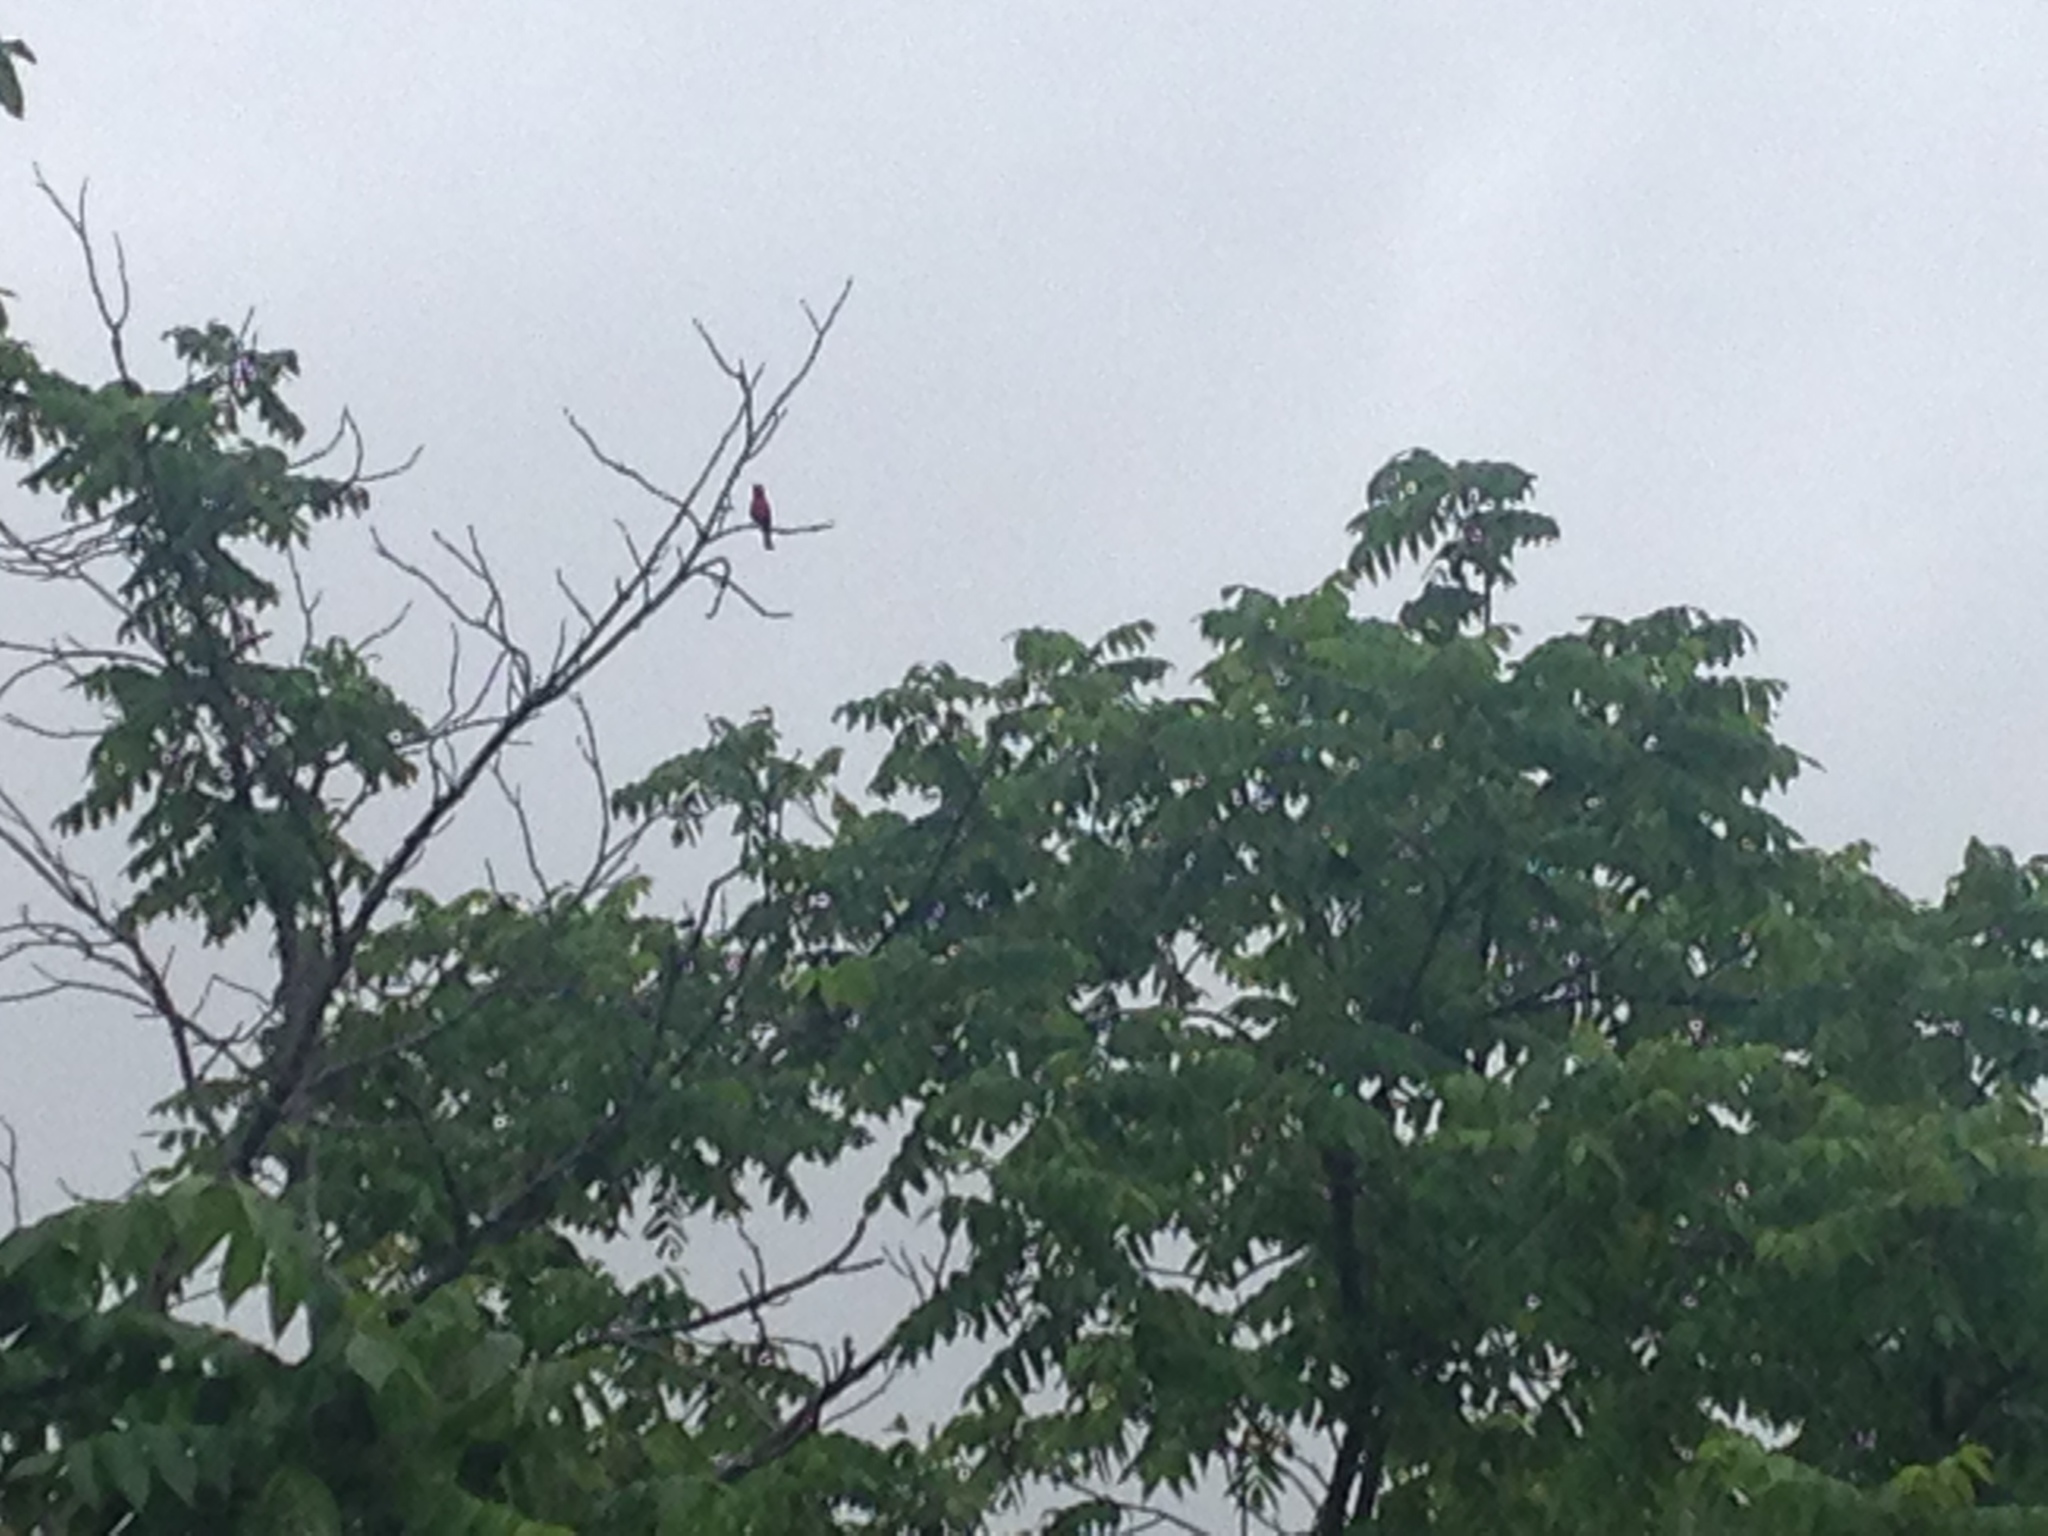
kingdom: Animalia
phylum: Chordata
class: Aves
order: Passeriformes
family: Cardinalidae
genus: Piranga
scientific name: Piranga rubra
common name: Summer tanager
